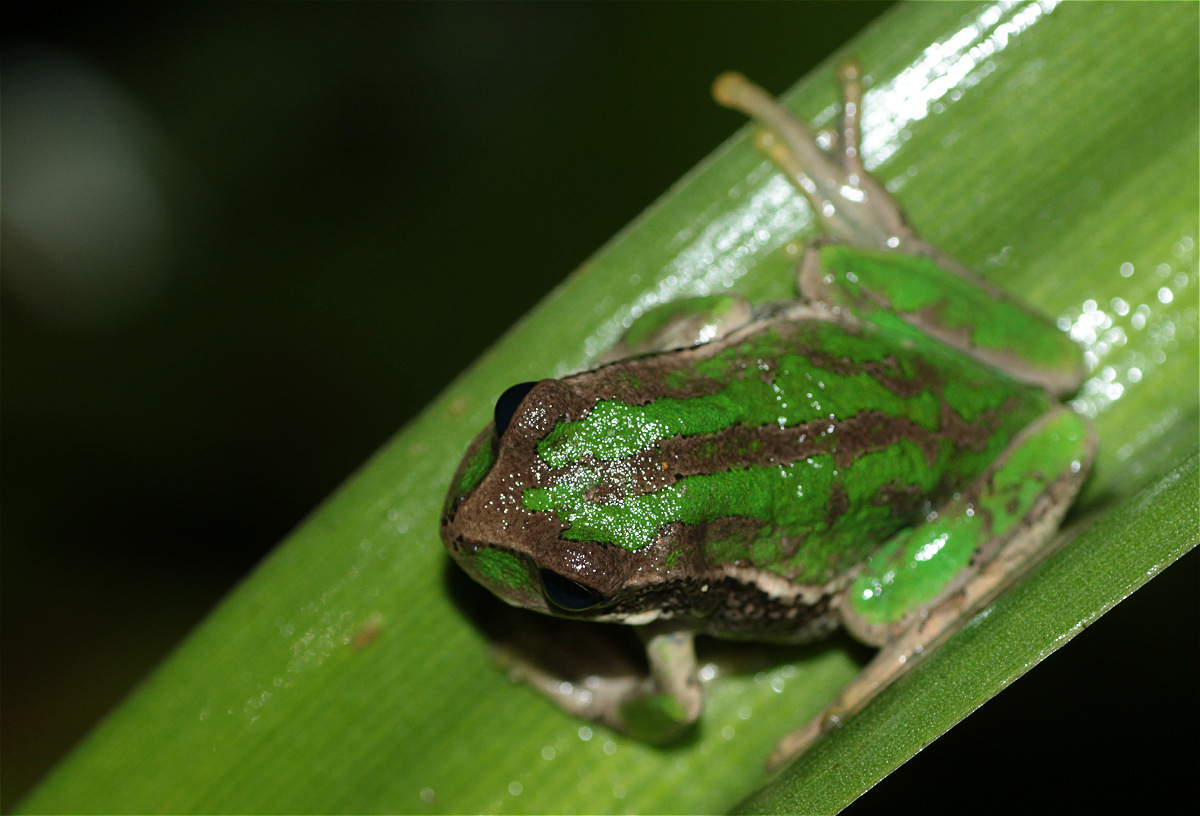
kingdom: Animalia
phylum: Chordata
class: Amphibia
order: Anura
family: Hemiphractidae
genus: Gastrotheca
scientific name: Gastrotheca cuencana
